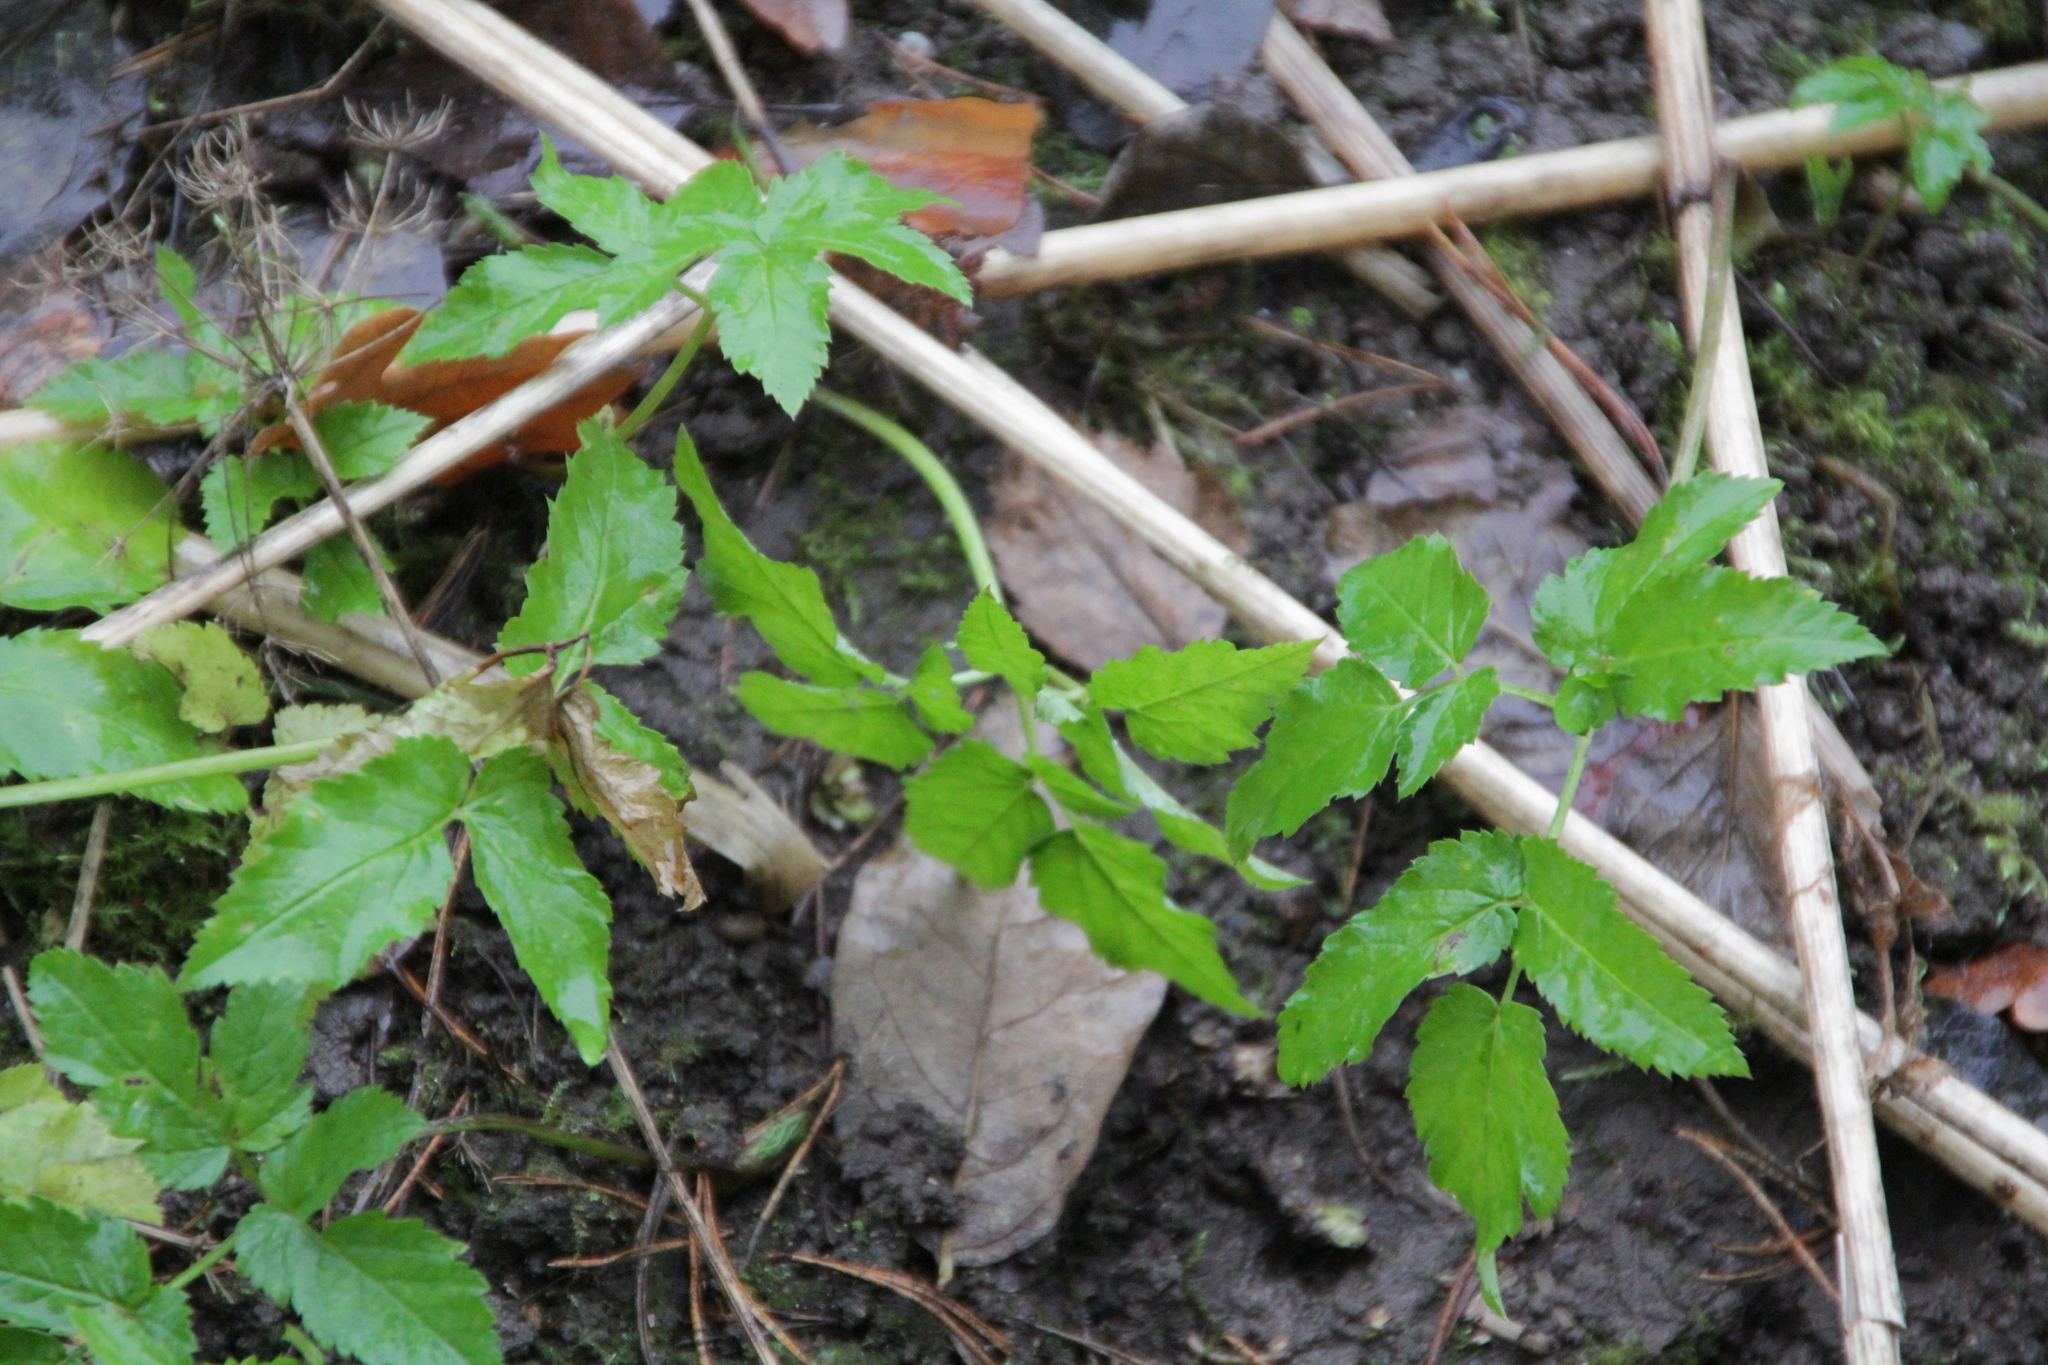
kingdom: Plantae
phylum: Tracheophyta
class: Magnoliopsida
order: Apiales
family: Apiaceae
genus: Aegopodium
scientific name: Aegopodium podagraria
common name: Ground-elder
